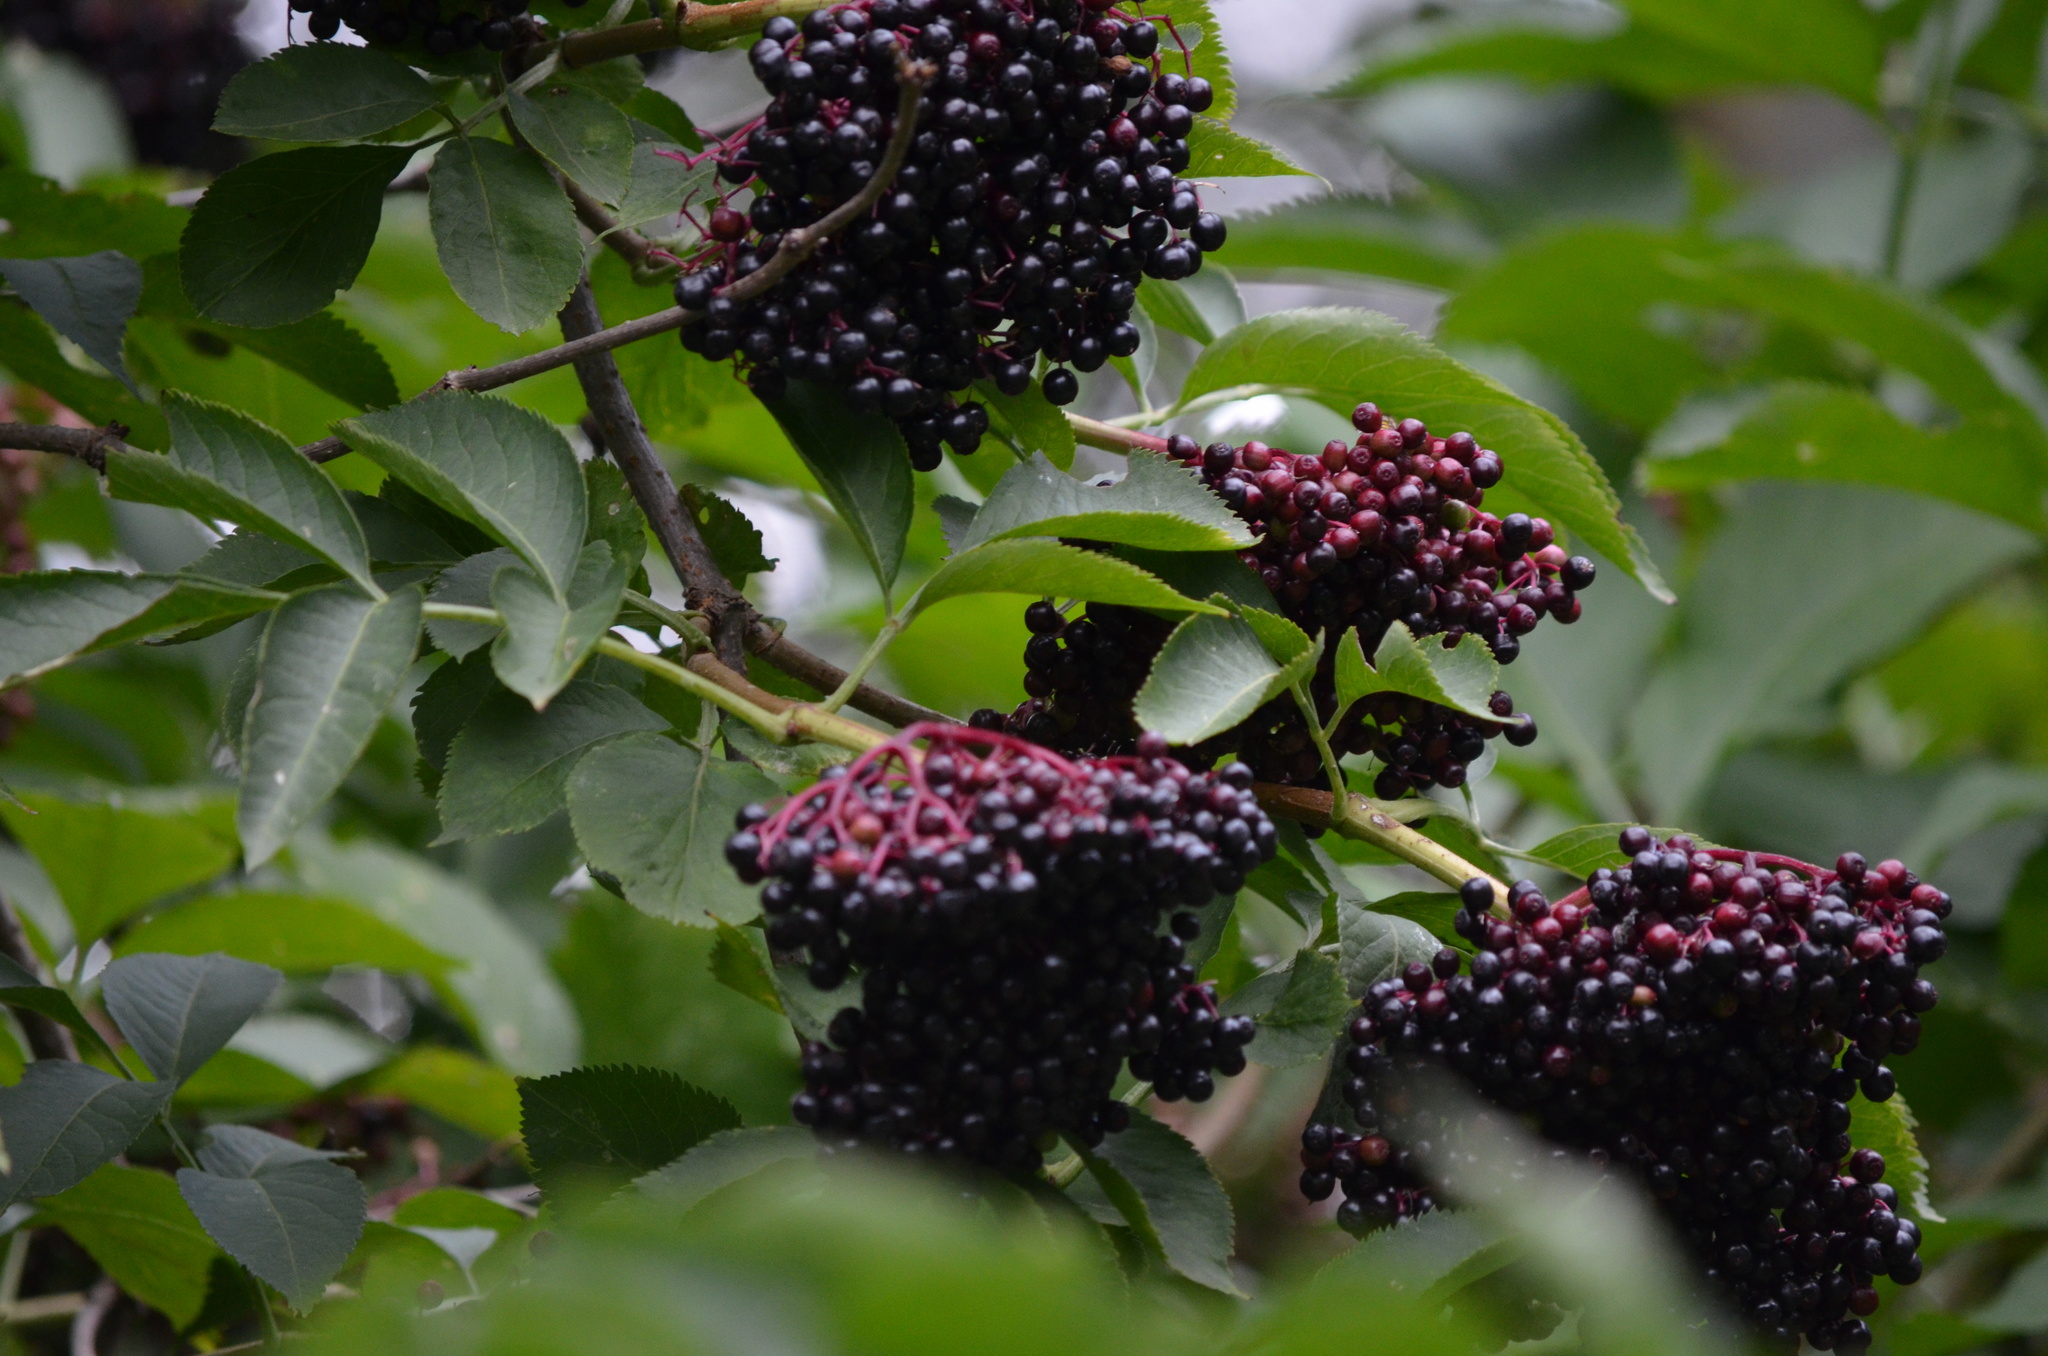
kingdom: Plantae
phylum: Tracheophyta
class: Magnoliopsida
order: Dipsacales
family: Viburnaceae
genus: Sambucus
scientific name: Sambucus nigra
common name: Elder
